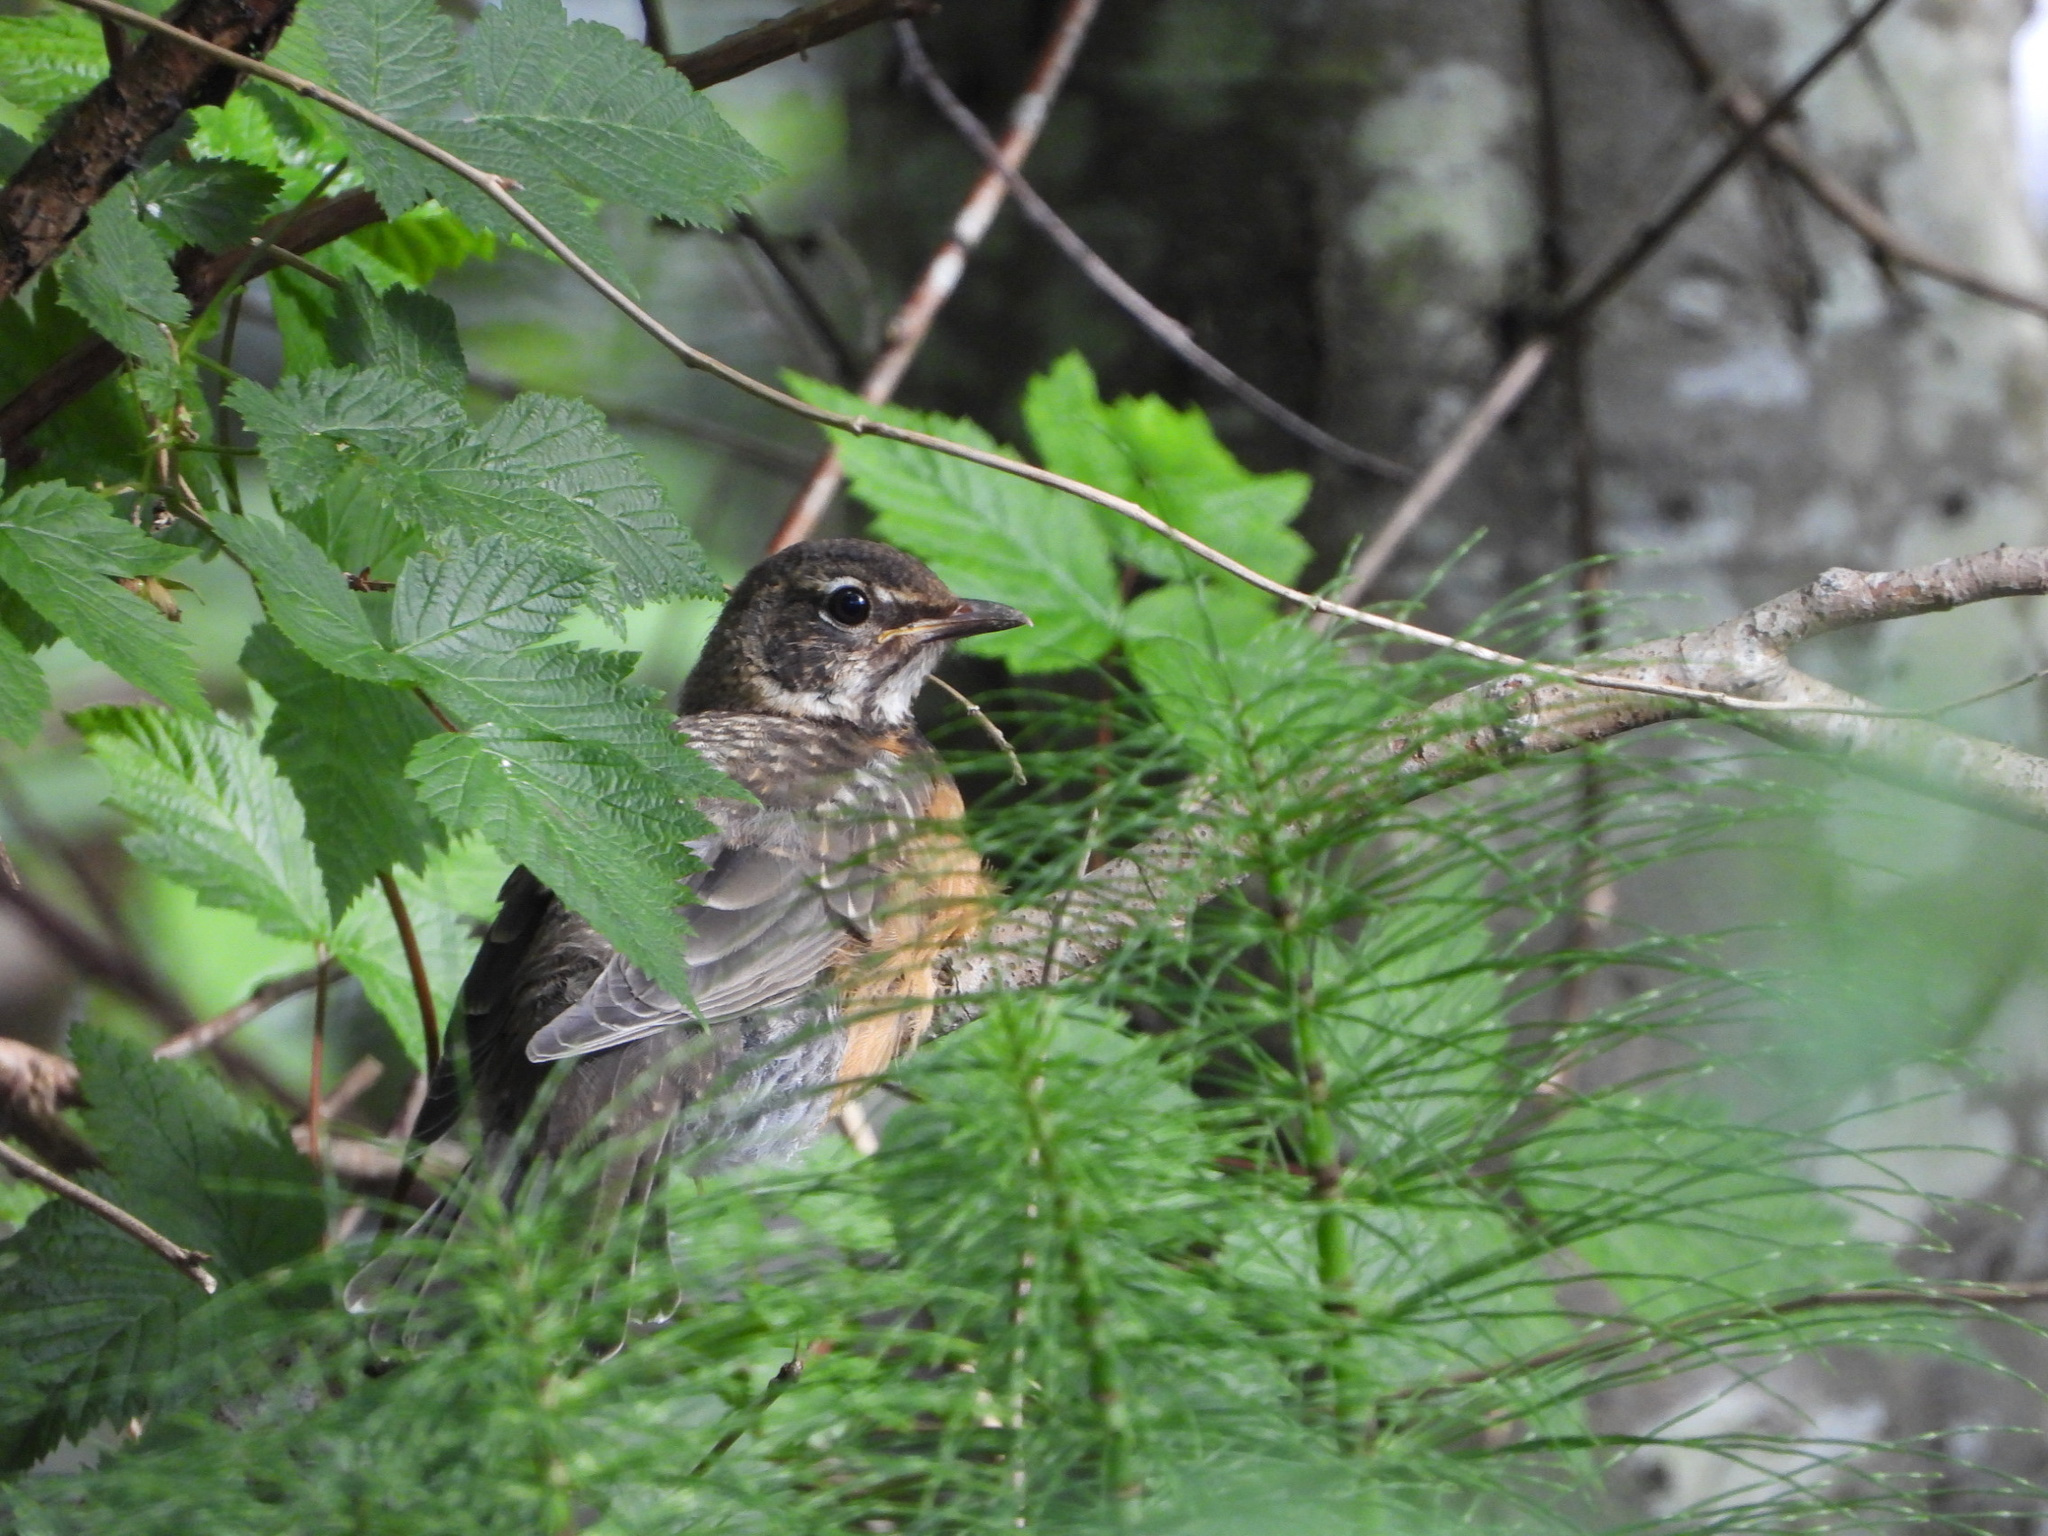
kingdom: Animalia
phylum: Chordata
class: Aves
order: Passeriformes
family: Turdidae
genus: Turdus
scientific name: Turdus migratorius
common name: American robin
